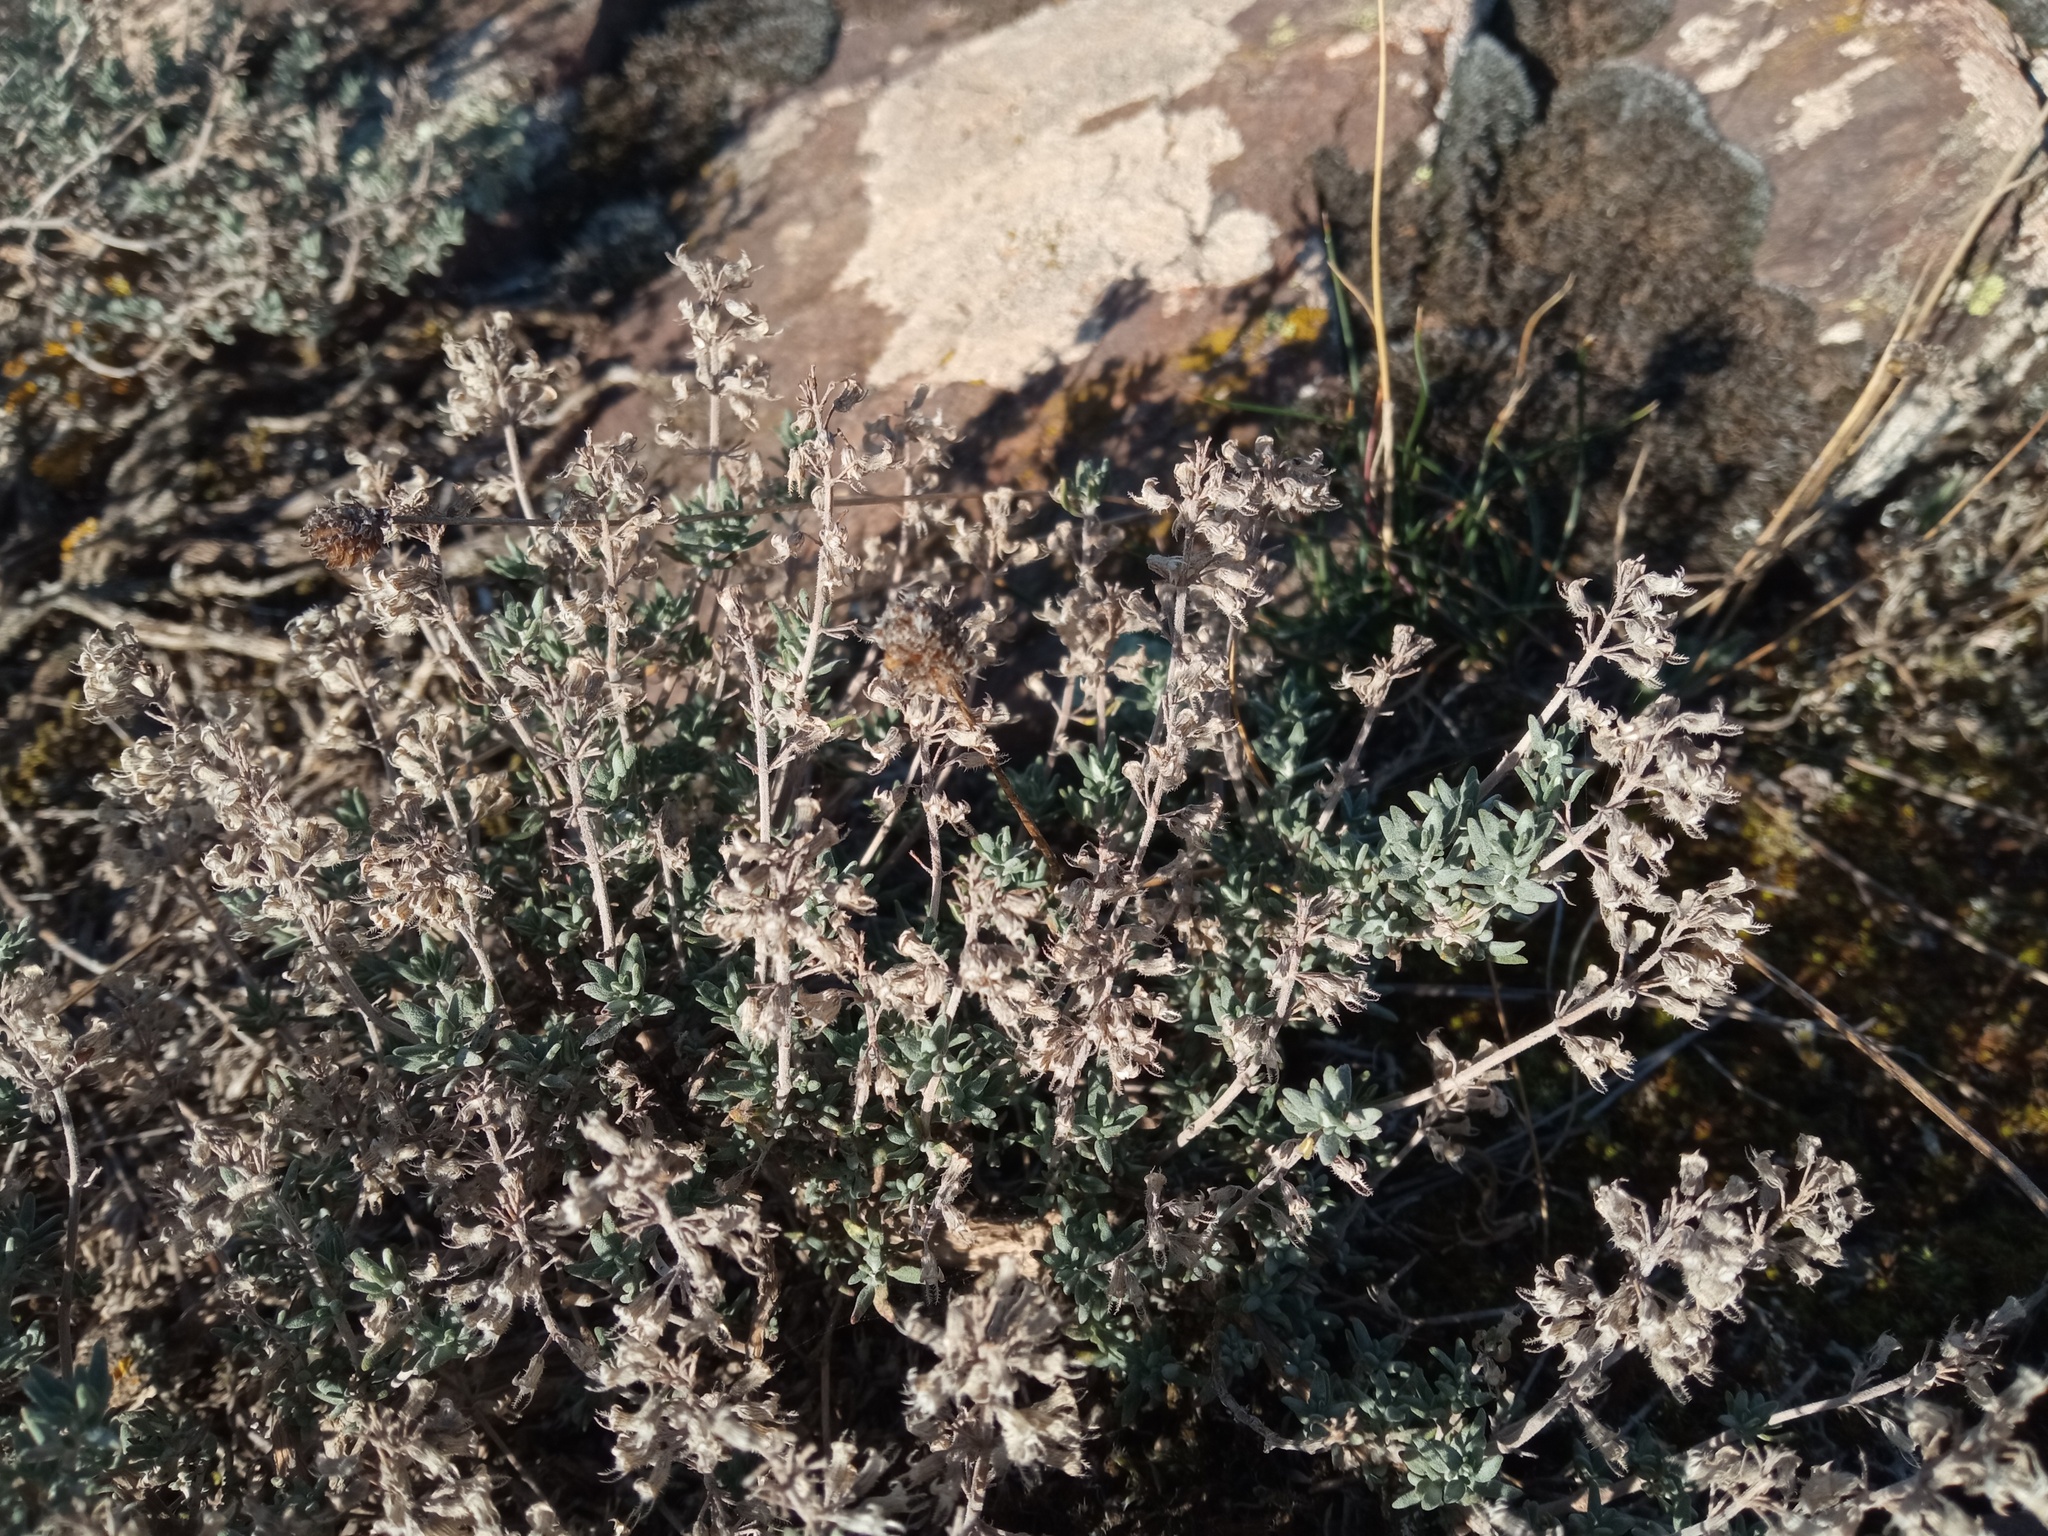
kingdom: Plantae
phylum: Tracheophyta
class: Magnoliopsida
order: Lamiales
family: Lamiaceae
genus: Thymus
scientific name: Thymus vulgaris
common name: Garden thyme
